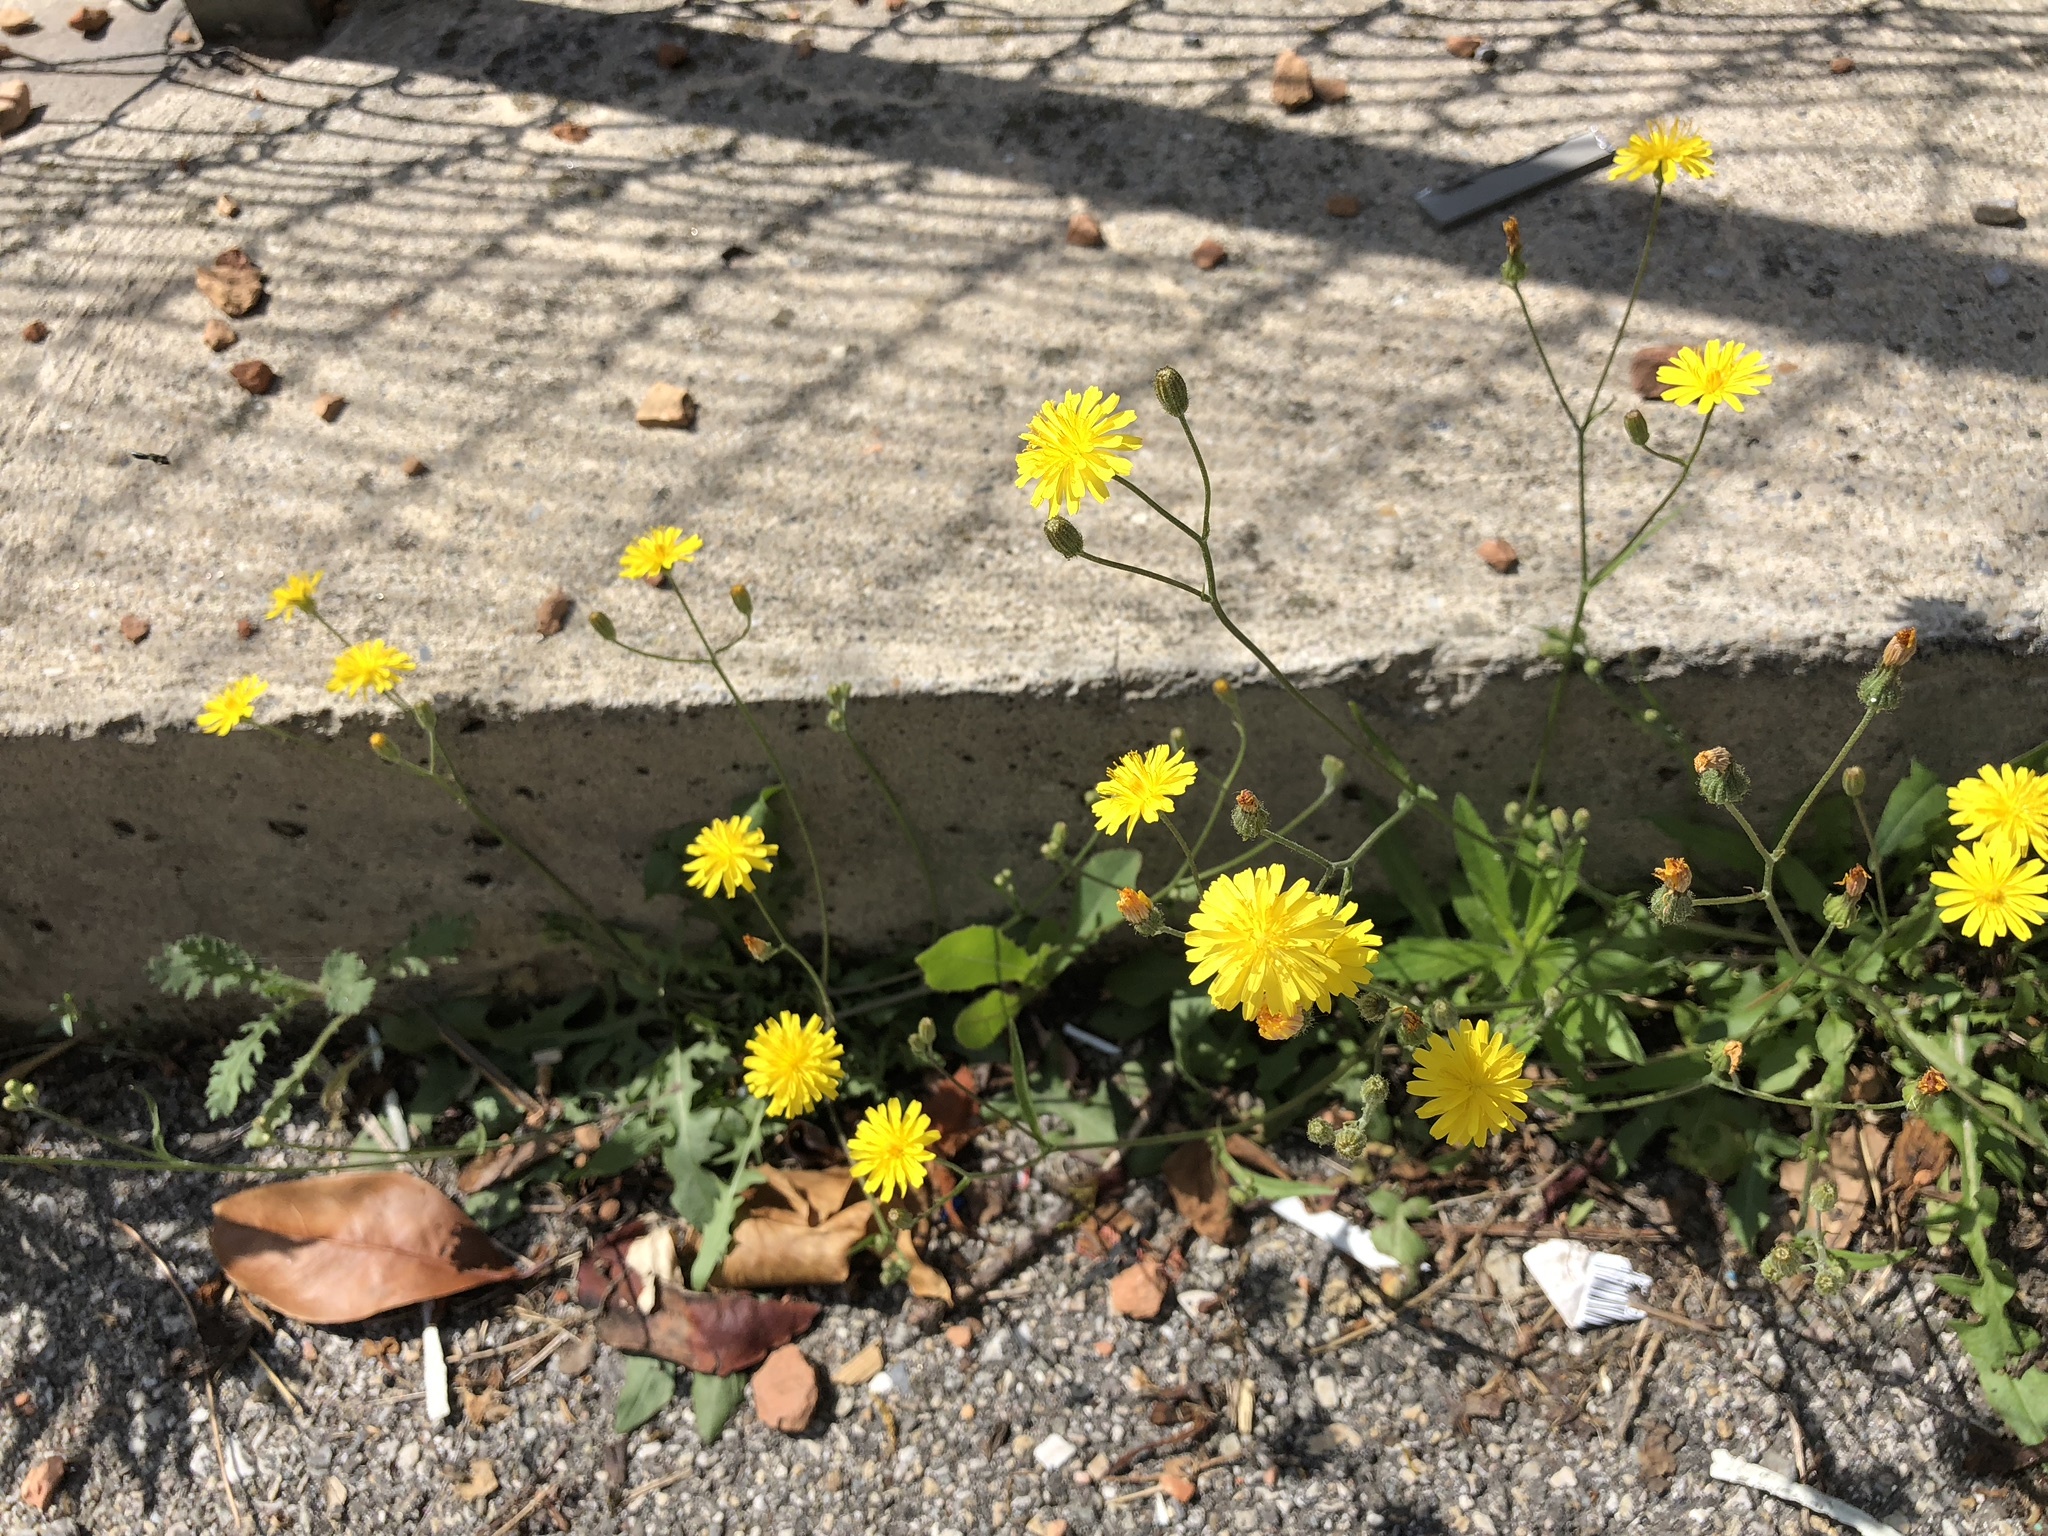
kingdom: Plantae
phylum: Tracheophyta
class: Magnoliopsida
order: Asterales
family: Asteraceae
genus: Crepis
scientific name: Crepis capillaris
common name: Smooth hawksbeard
